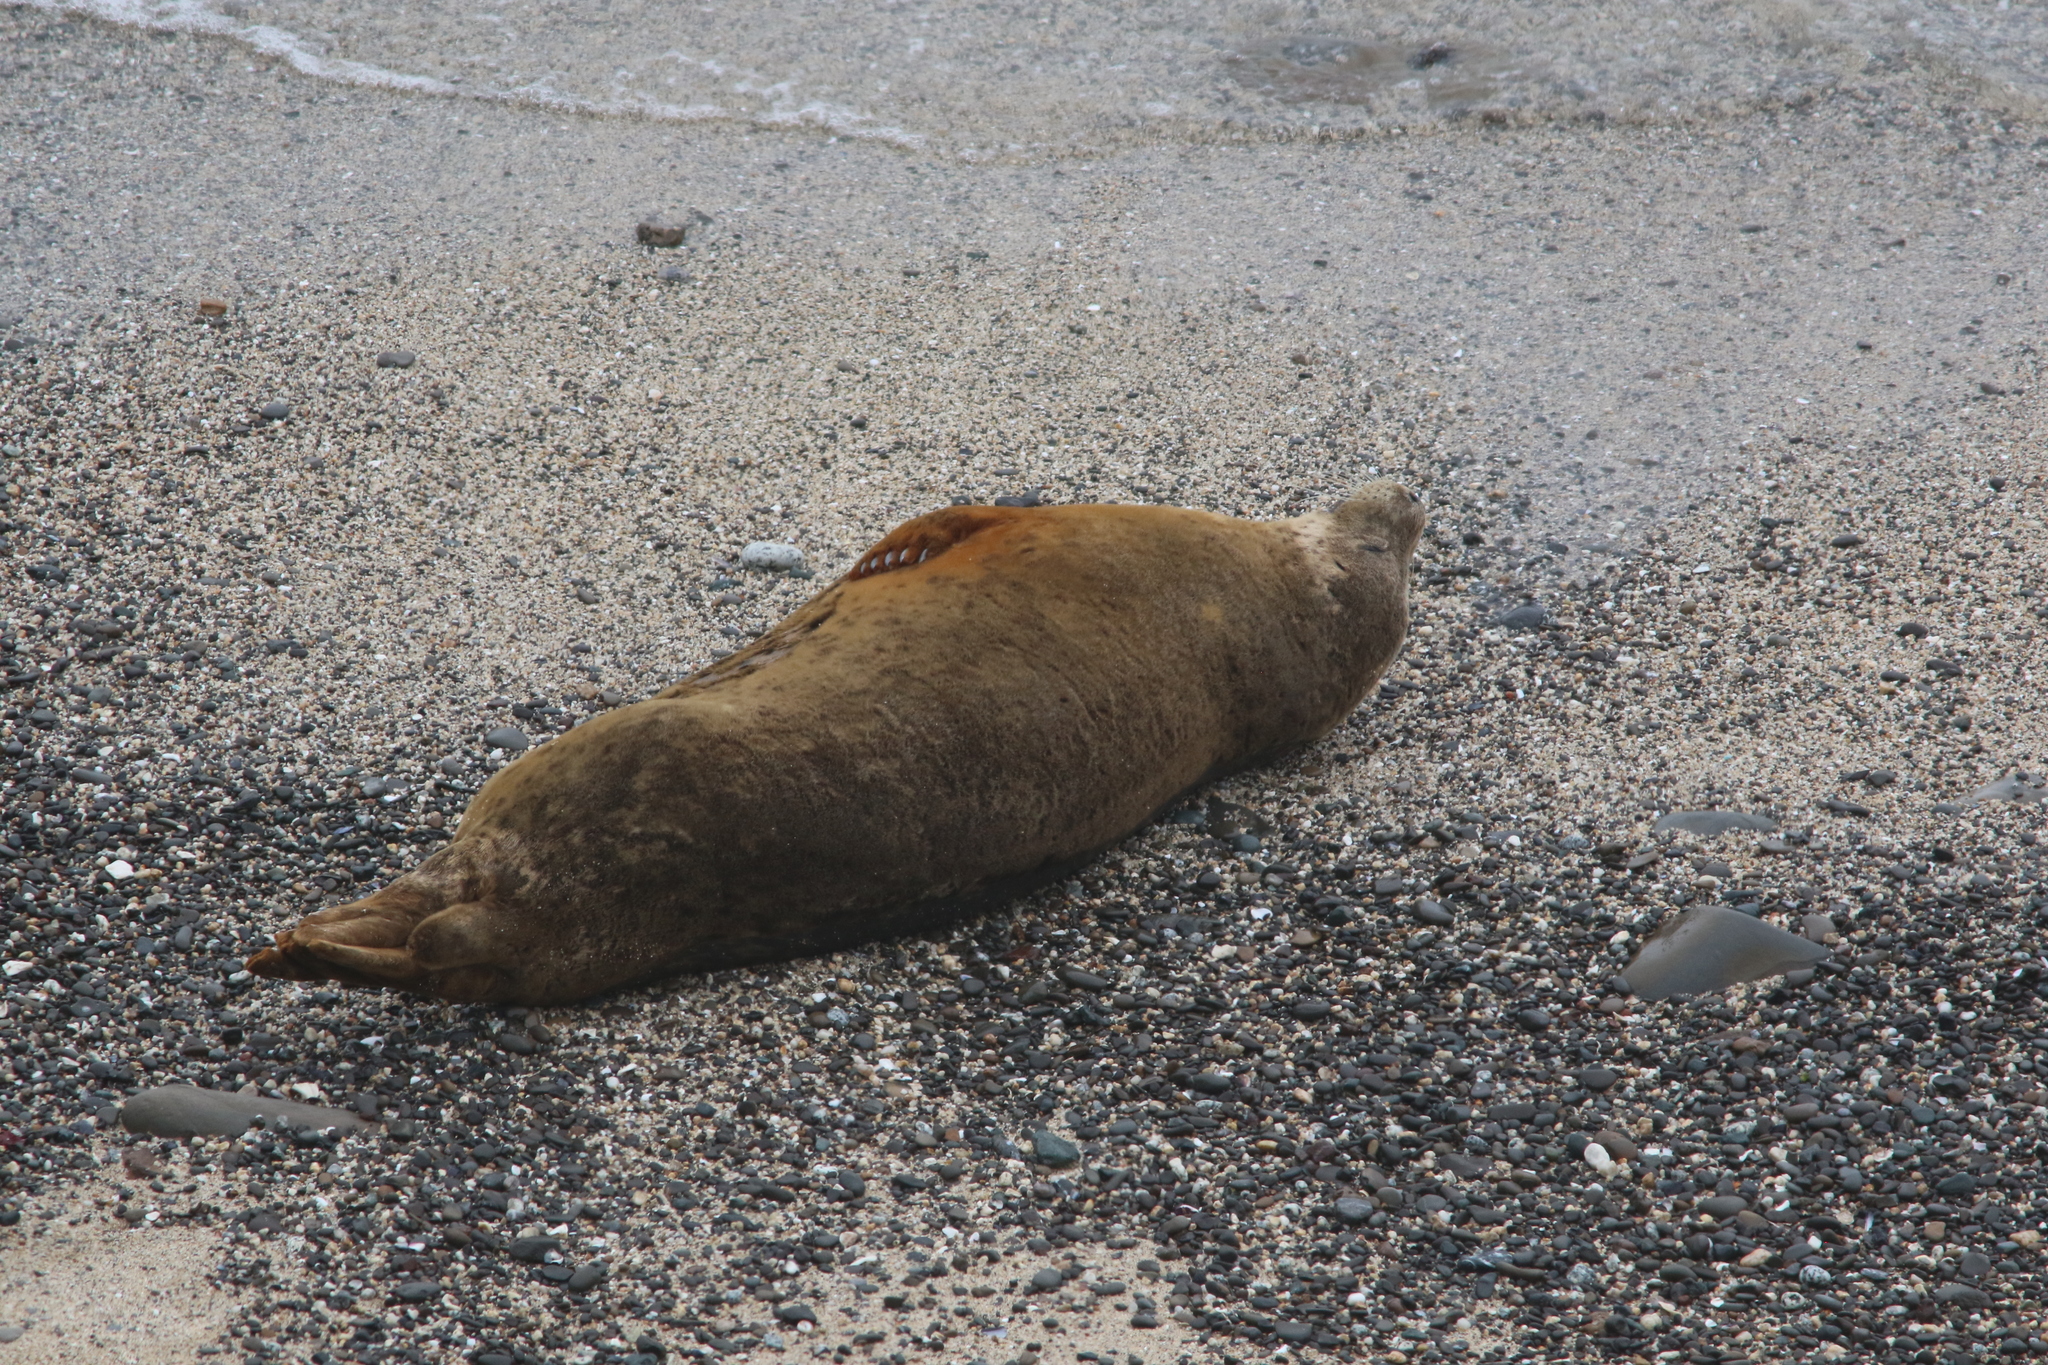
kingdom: Animalia
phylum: Chordata
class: Mammalia
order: Carnivora
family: Phocidae
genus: Phoca
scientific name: Phoca vitulina
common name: Harbor seal
